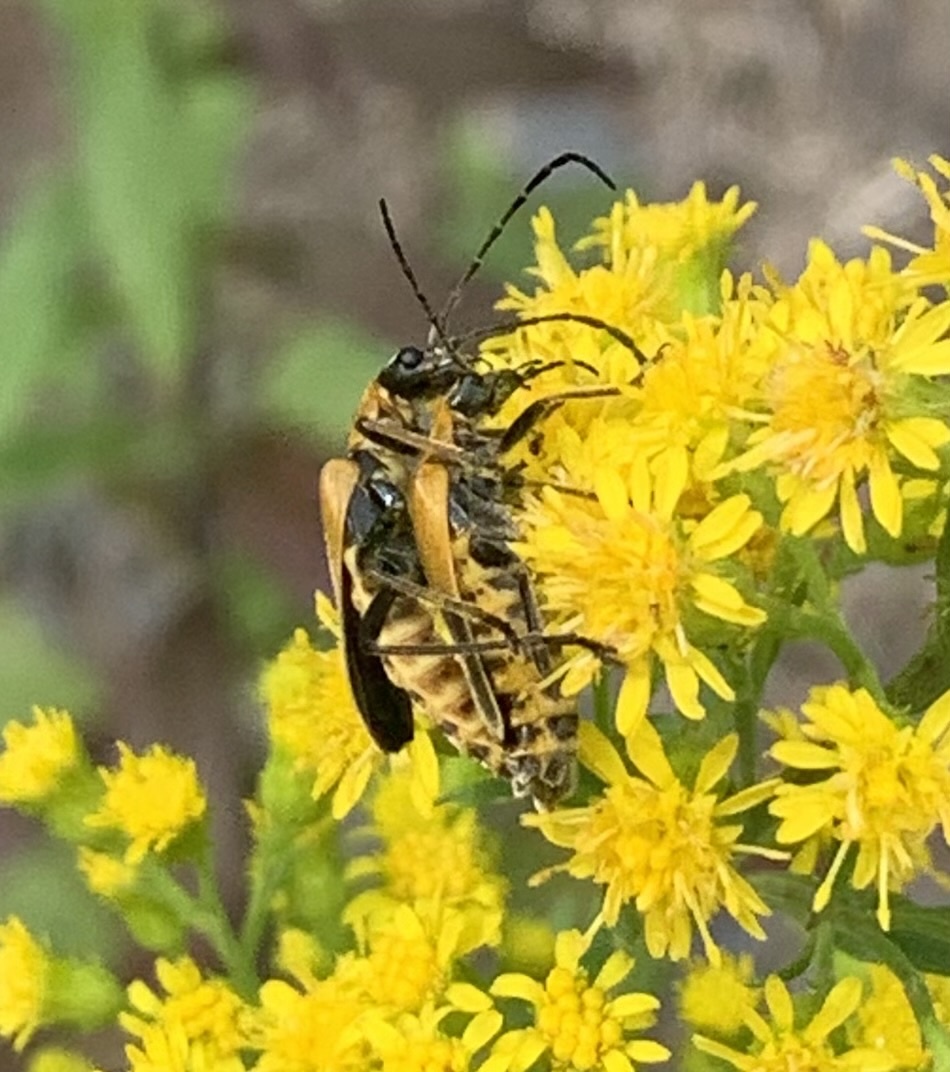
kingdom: Animalia
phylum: Arthropoda
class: Insecta
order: Coleoptera
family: Cantharidae
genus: Chauliognathus
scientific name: Chauliognathus pensylvanicus
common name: Goldenrod soldier beetle
